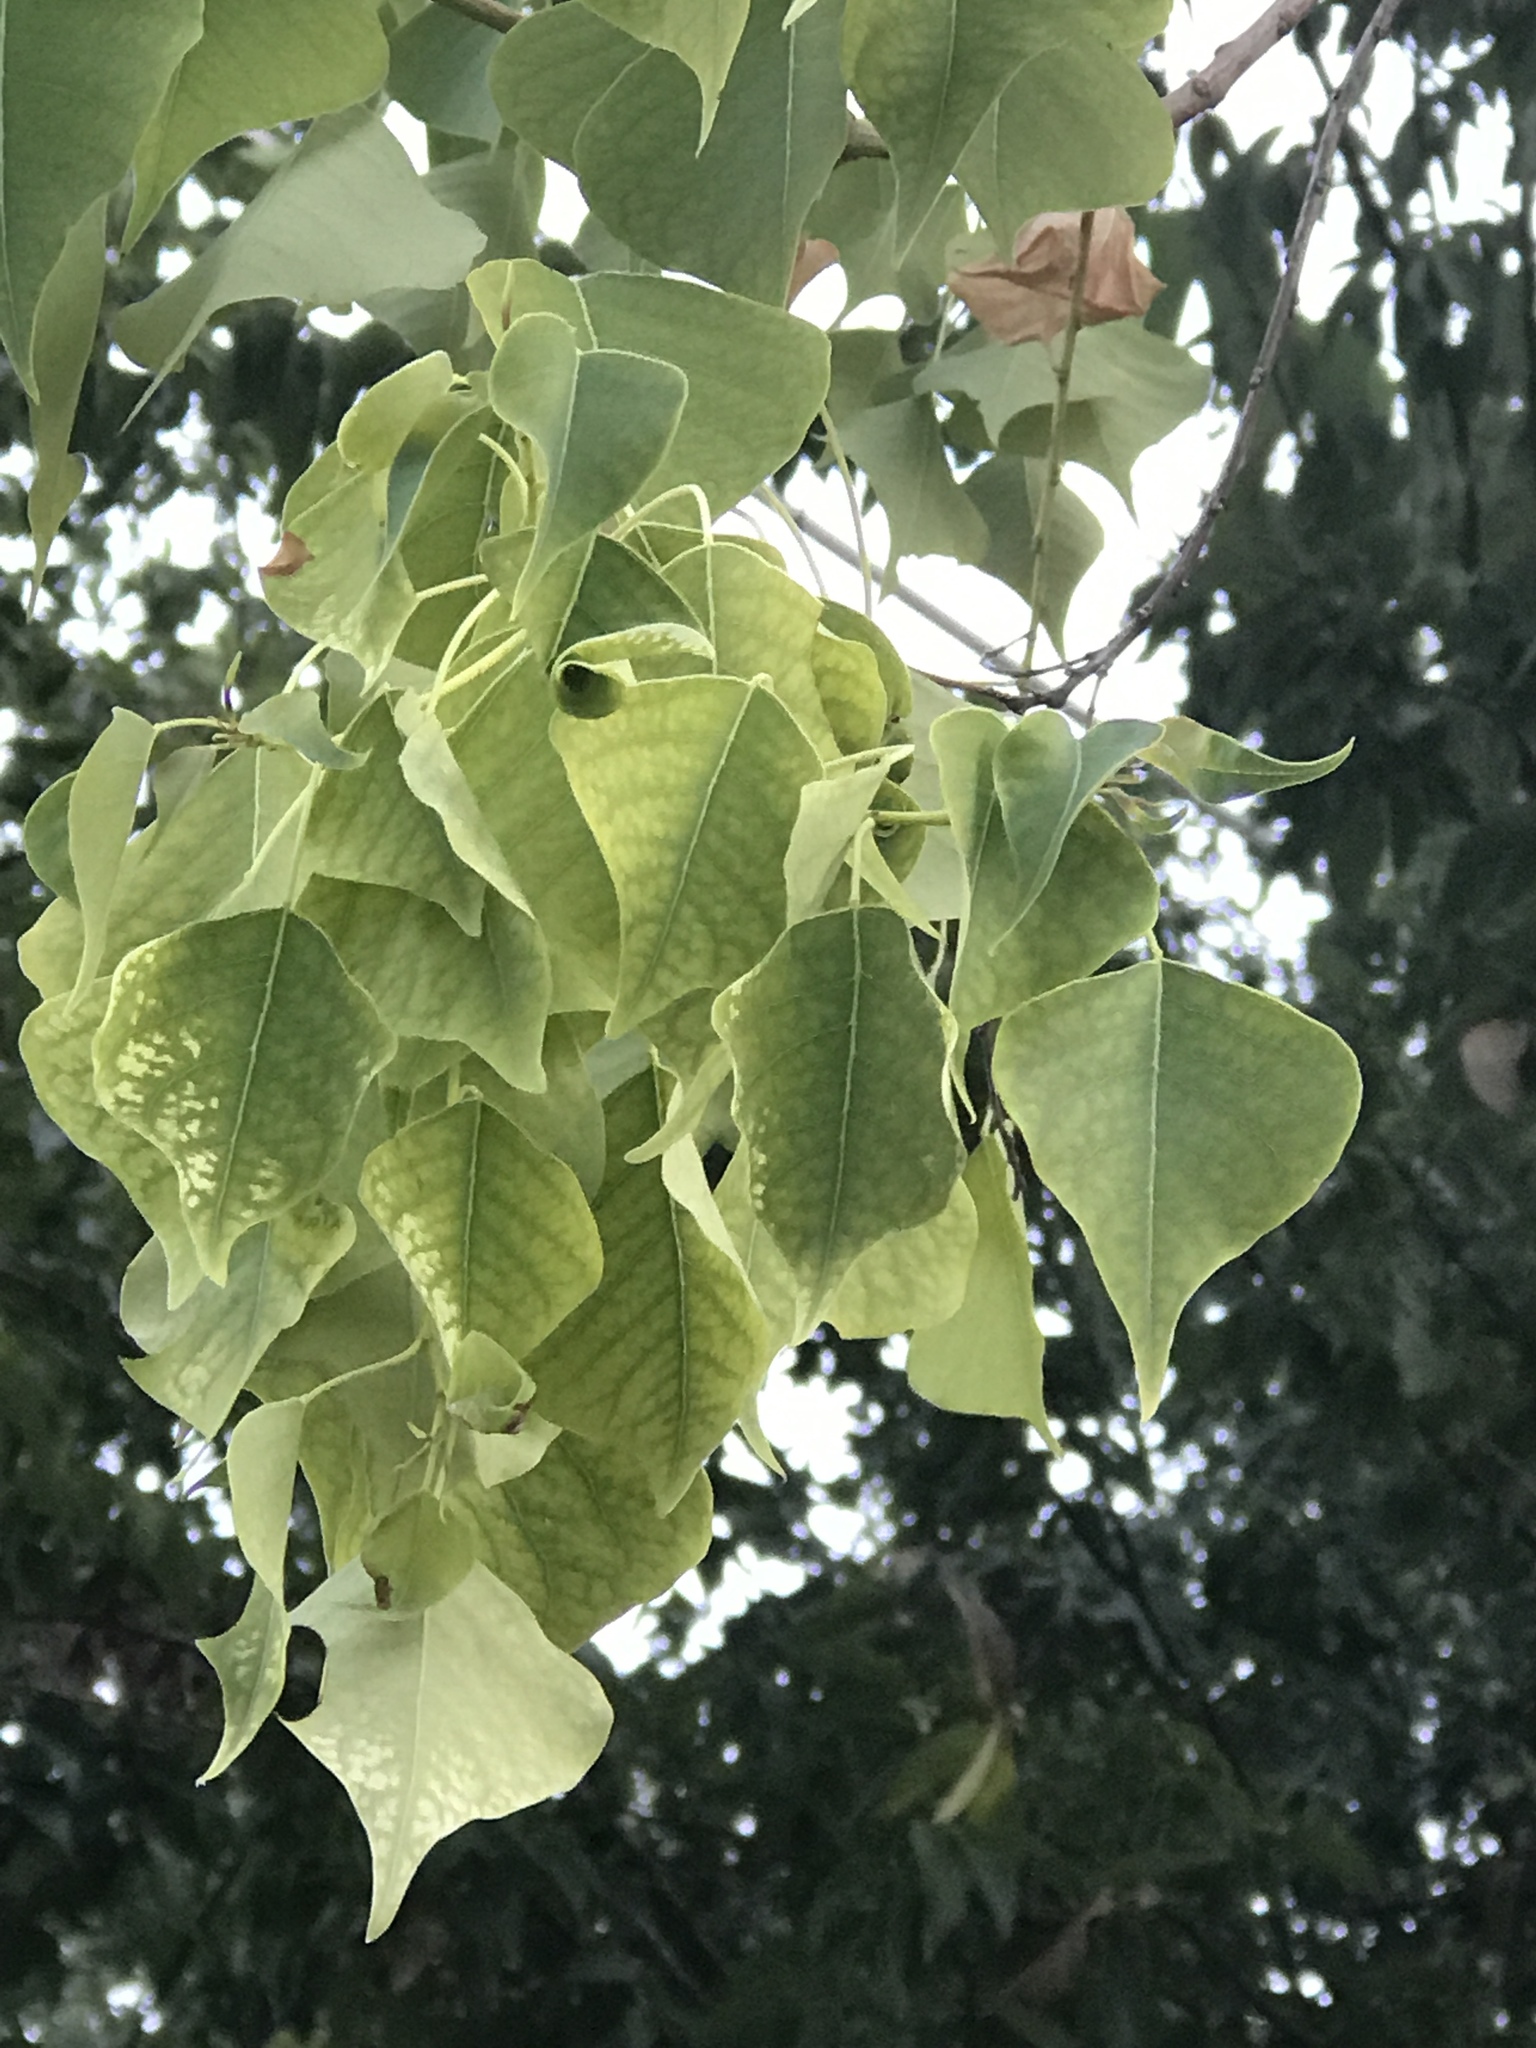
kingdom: Plantae
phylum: Tracheophyta
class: Magnoliopsida
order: Malpighiales
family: Euphorbiaceae
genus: Triadica
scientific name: Triadica sebifera
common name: Chinese tallow
